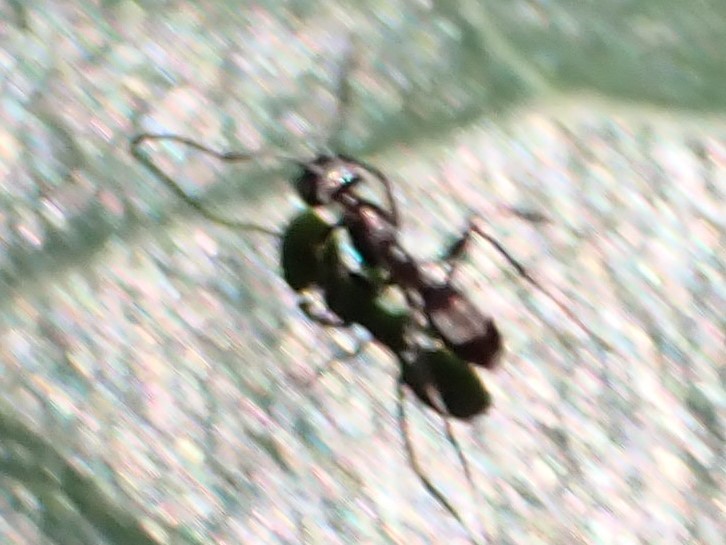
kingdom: Animalia
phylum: Arthropoda
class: Insecta
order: Hymenoptera
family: Formicidae
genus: Dorymyrmex
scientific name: Dorymyrmex
